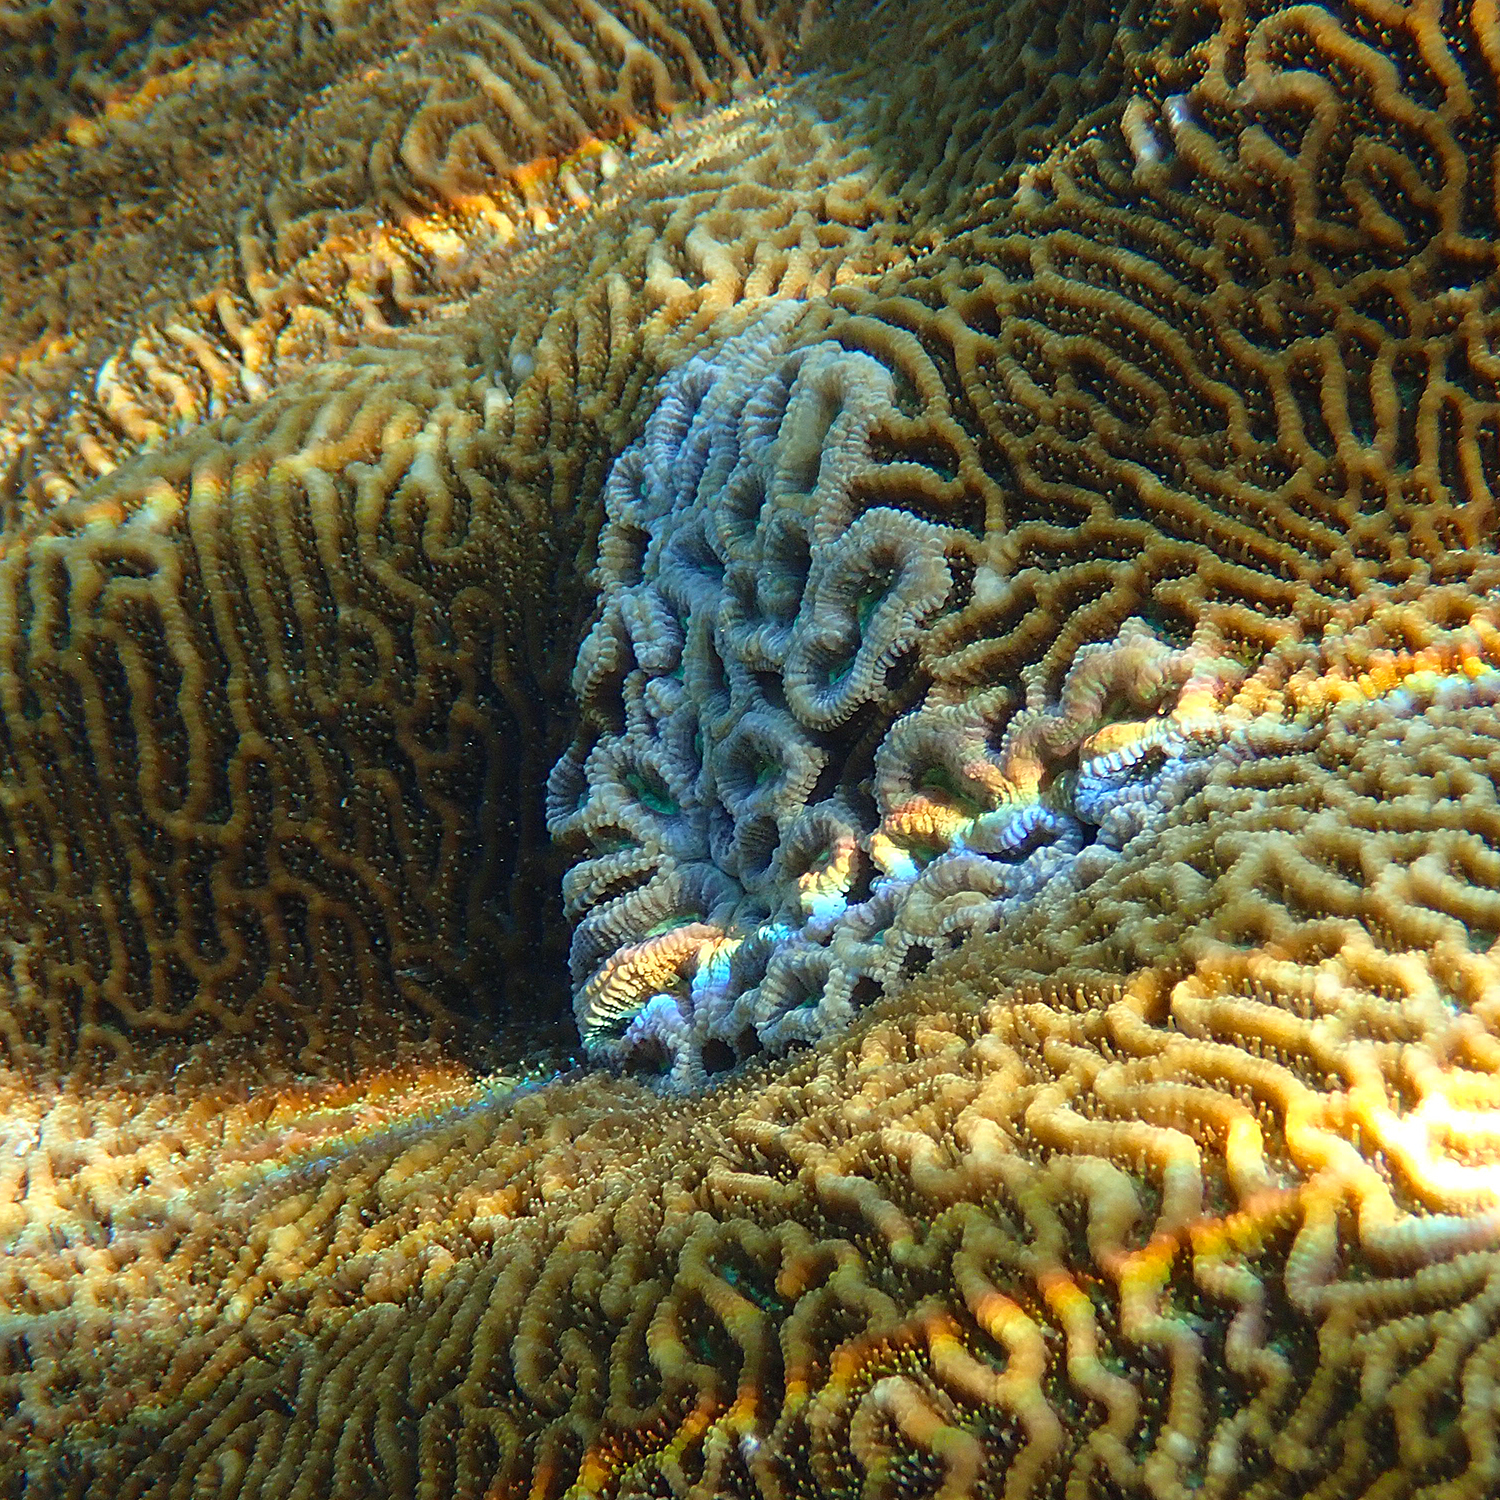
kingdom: Animalia
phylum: Cnidaria
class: Anthozoa
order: Scleractinia
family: Merulinidae
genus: Paragoniastrea
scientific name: Paragoniastrea australensis
